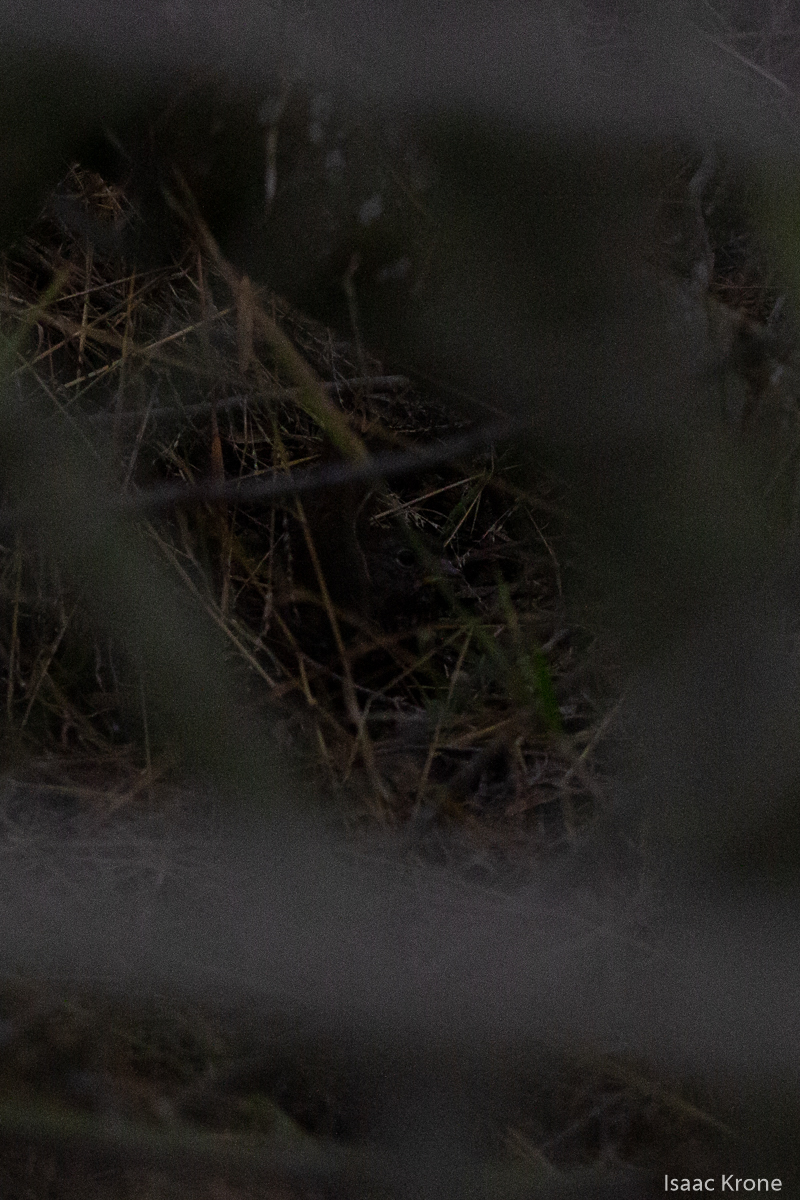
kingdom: Animalia
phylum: Chordata
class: Aves
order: Passeriformes
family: Passerellidae
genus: Passerella
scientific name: Passerella iliaca
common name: Fox sparrow
